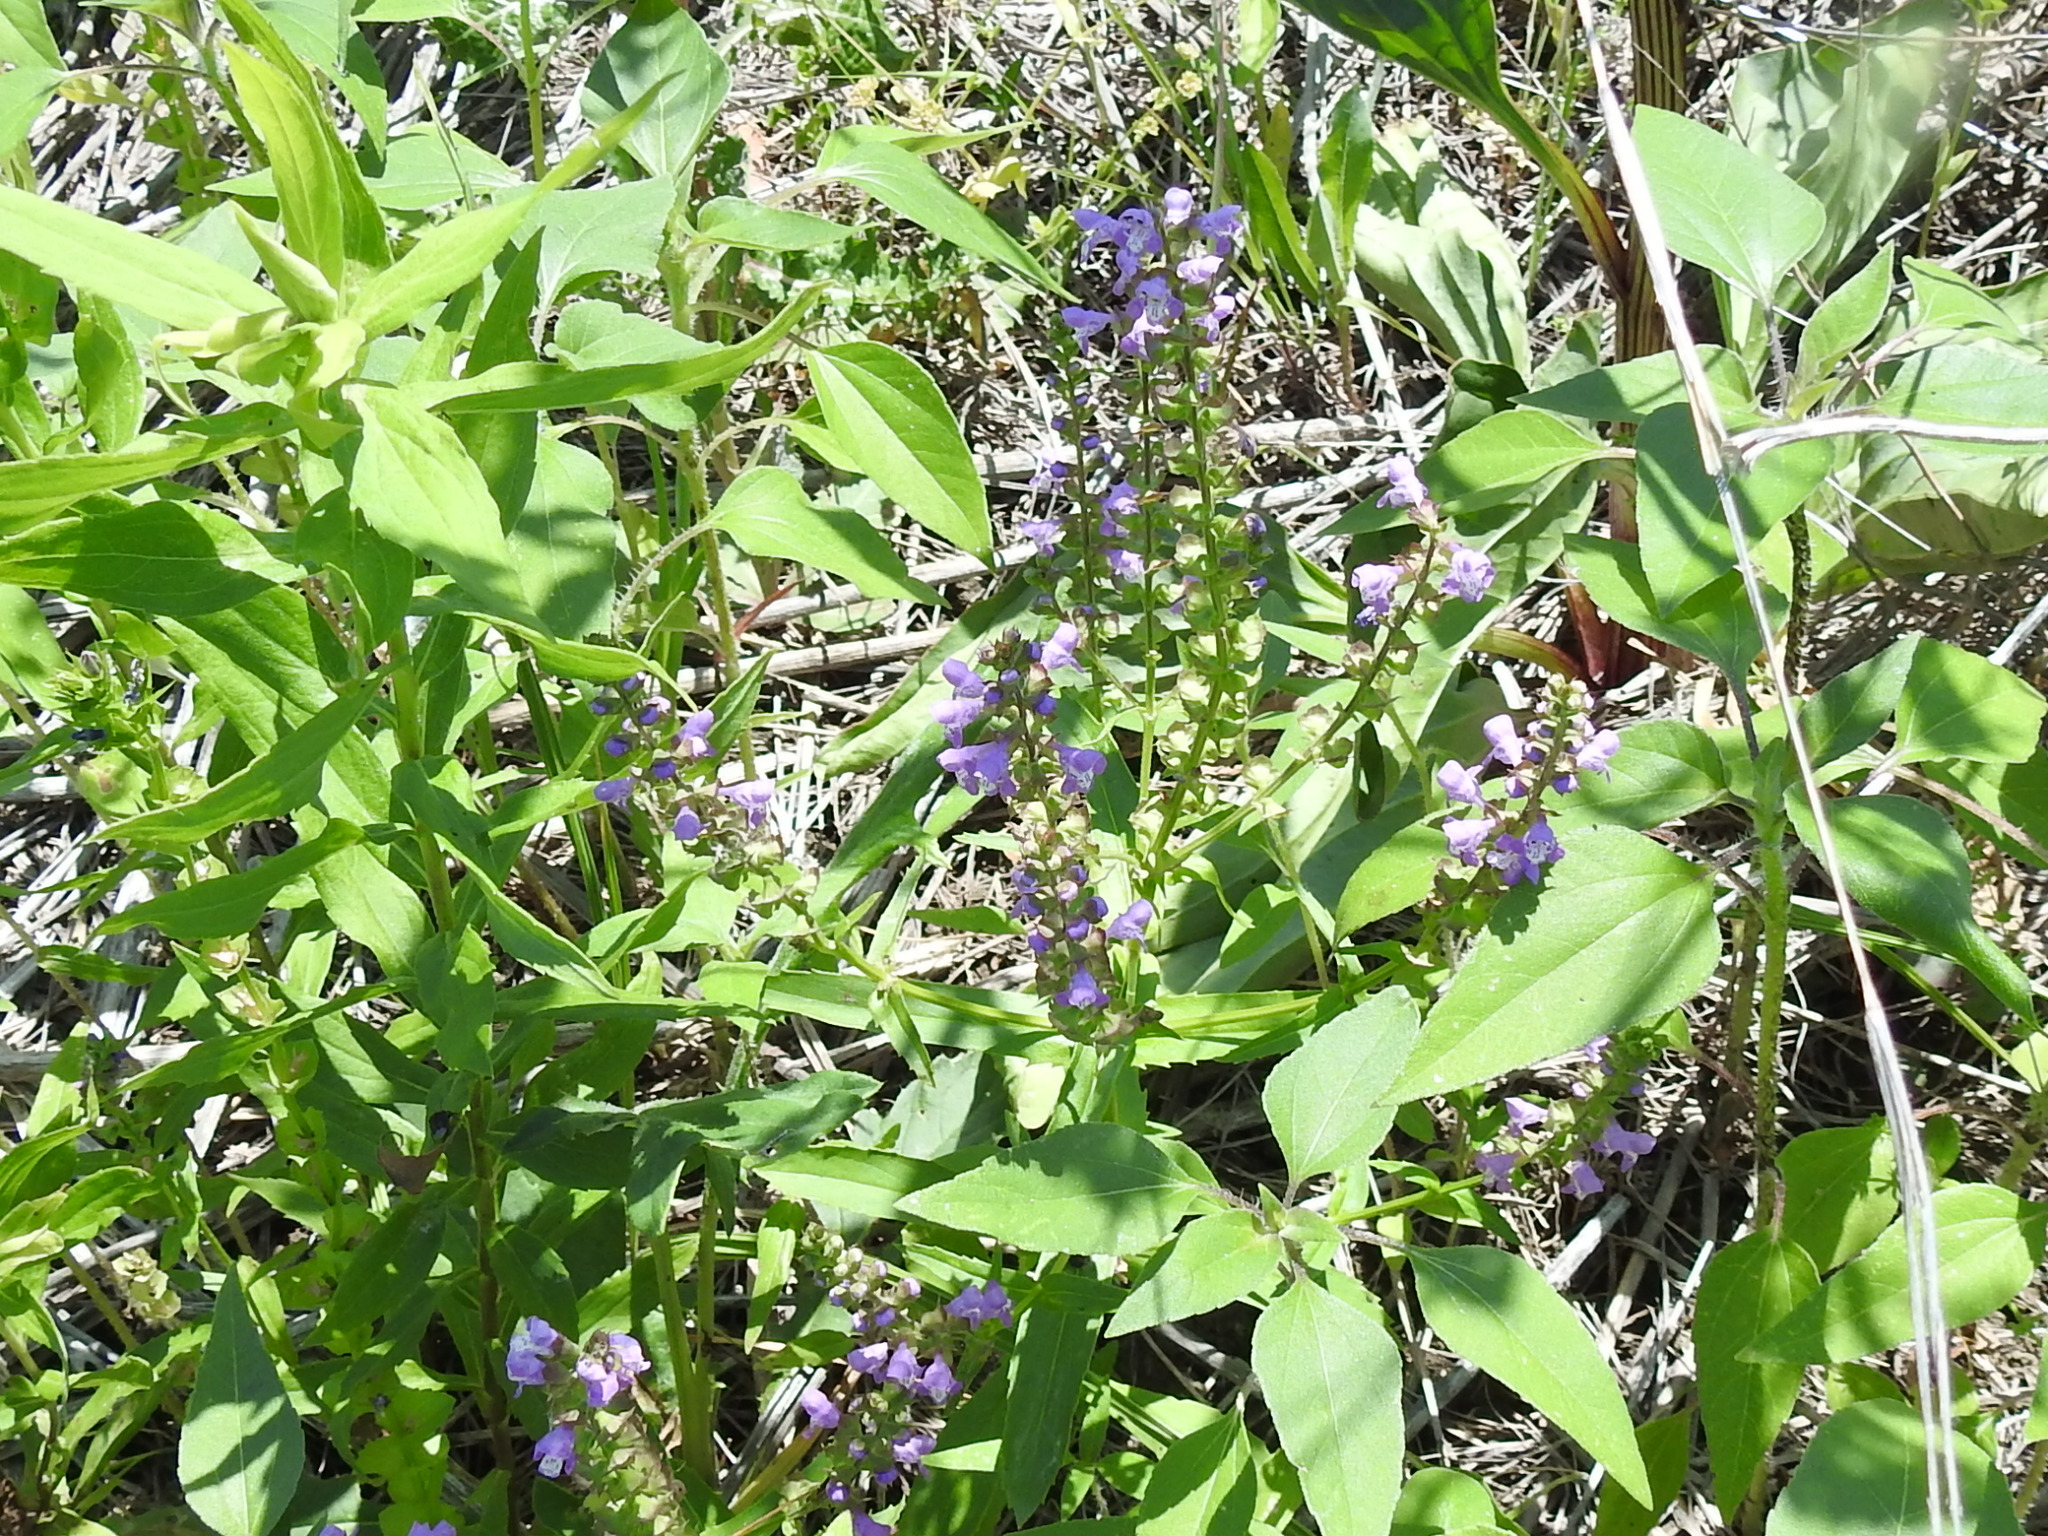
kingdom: Plantae
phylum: Tracheophyta
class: Magnoliopsida
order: Lamiales
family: Lamiaceae
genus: Warnockia
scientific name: Warnockia scutellarioides
